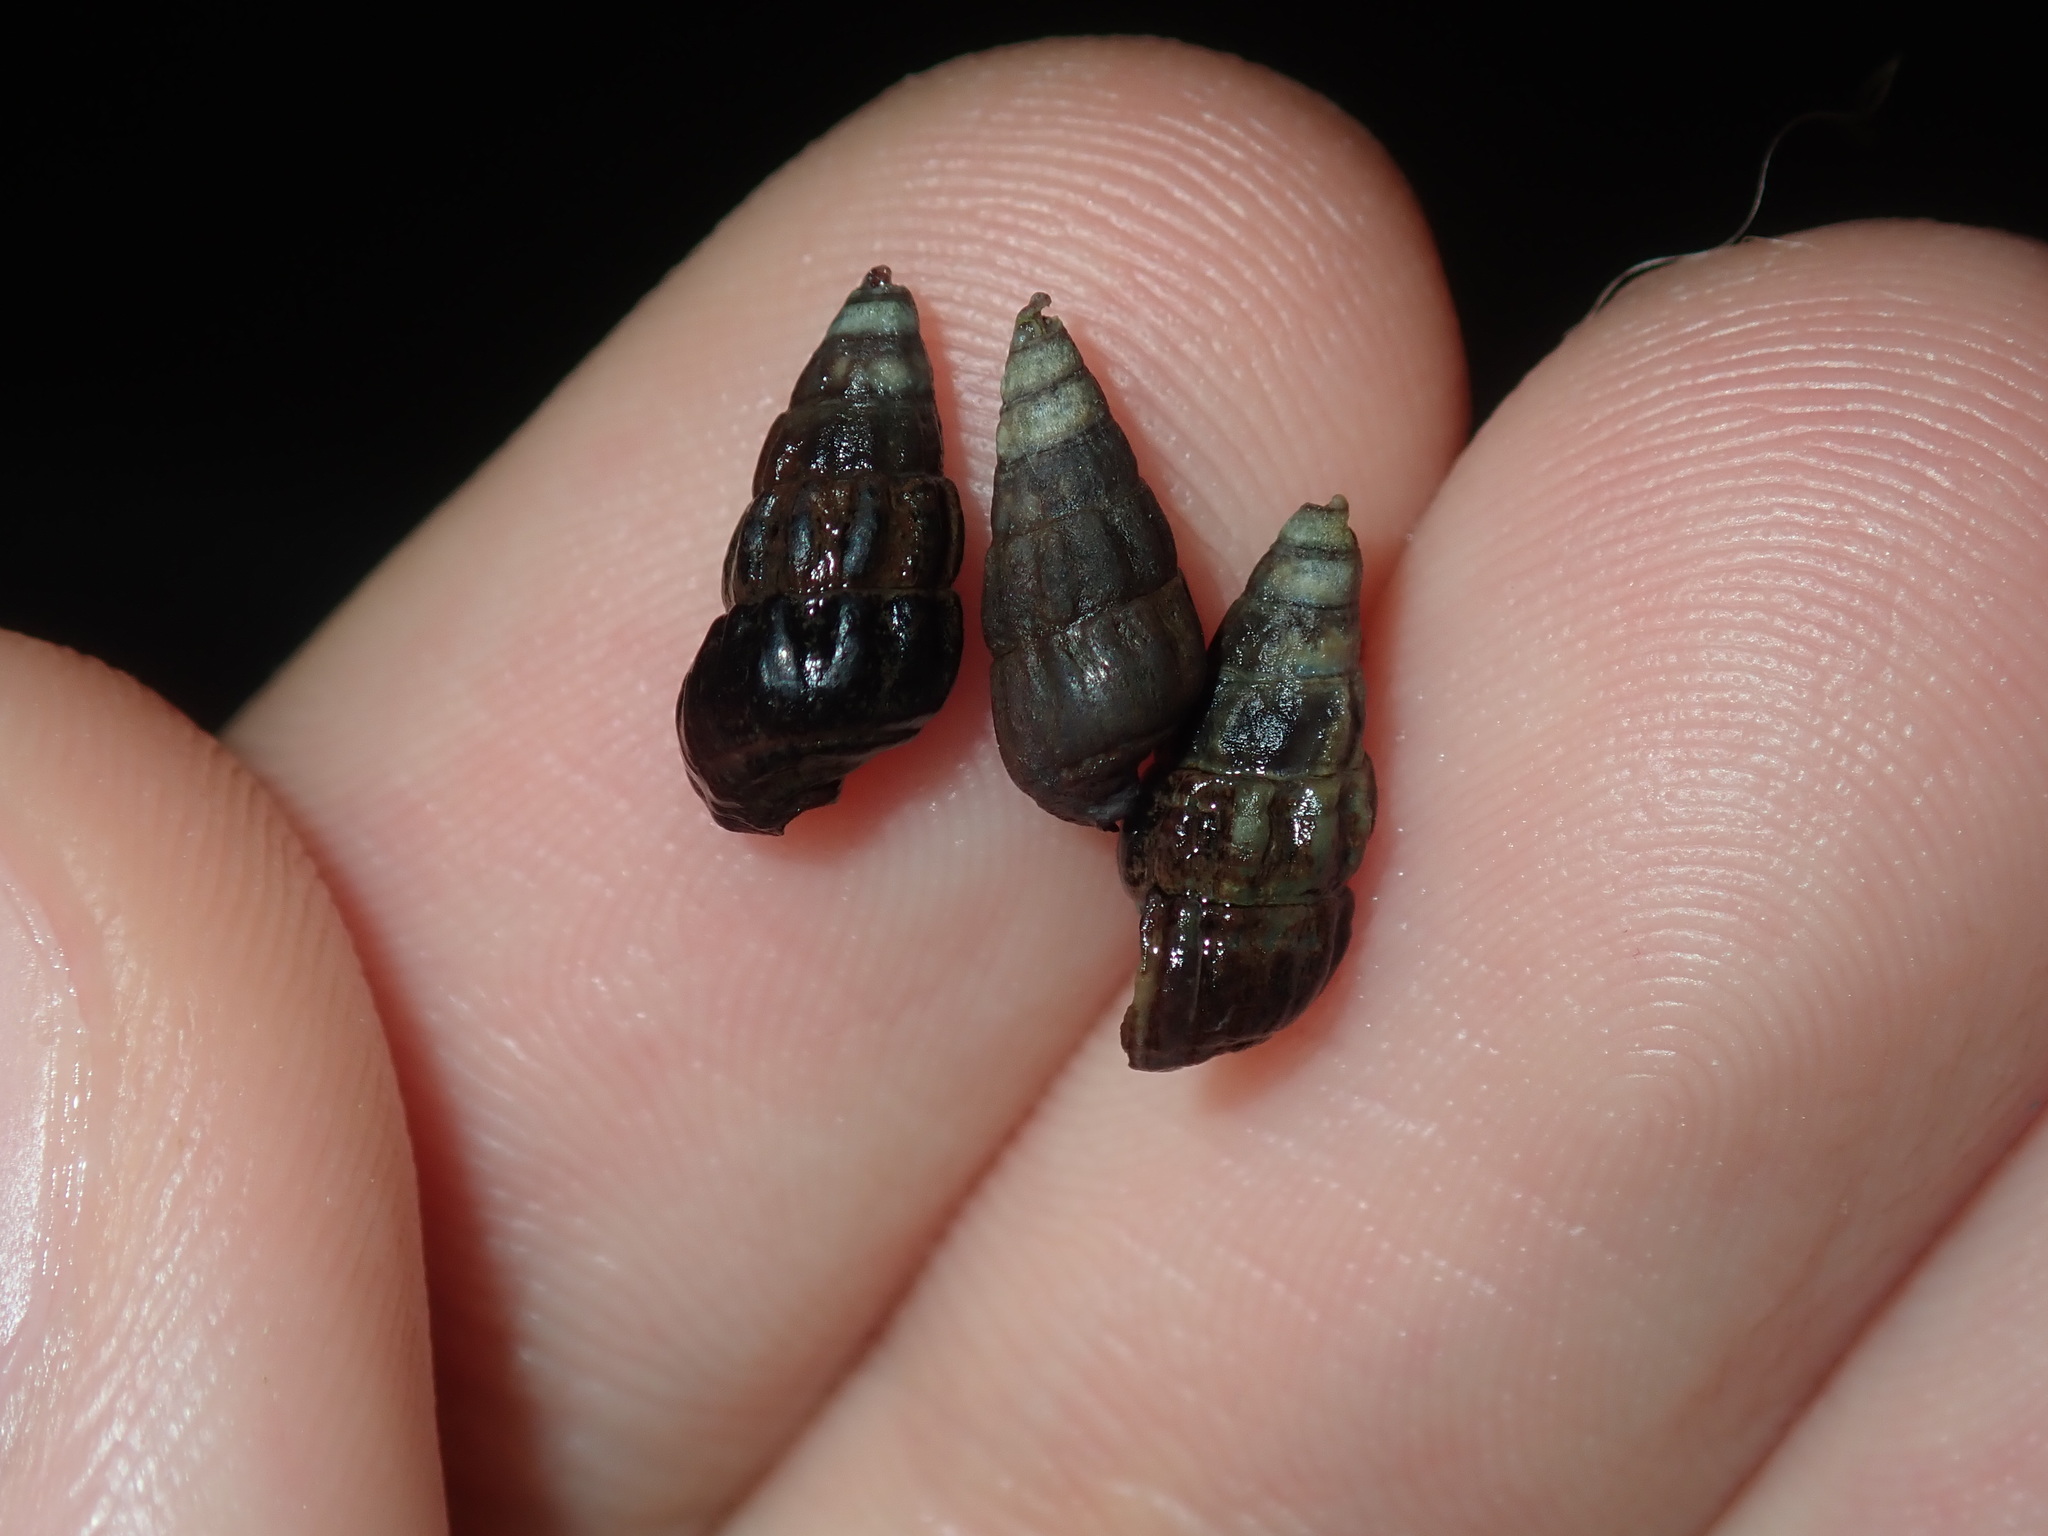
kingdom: Animalia
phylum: Mollusca
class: Gastropoda
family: Batillariidae
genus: Zeacumantus
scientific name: Zeacumantus subcarinatus
